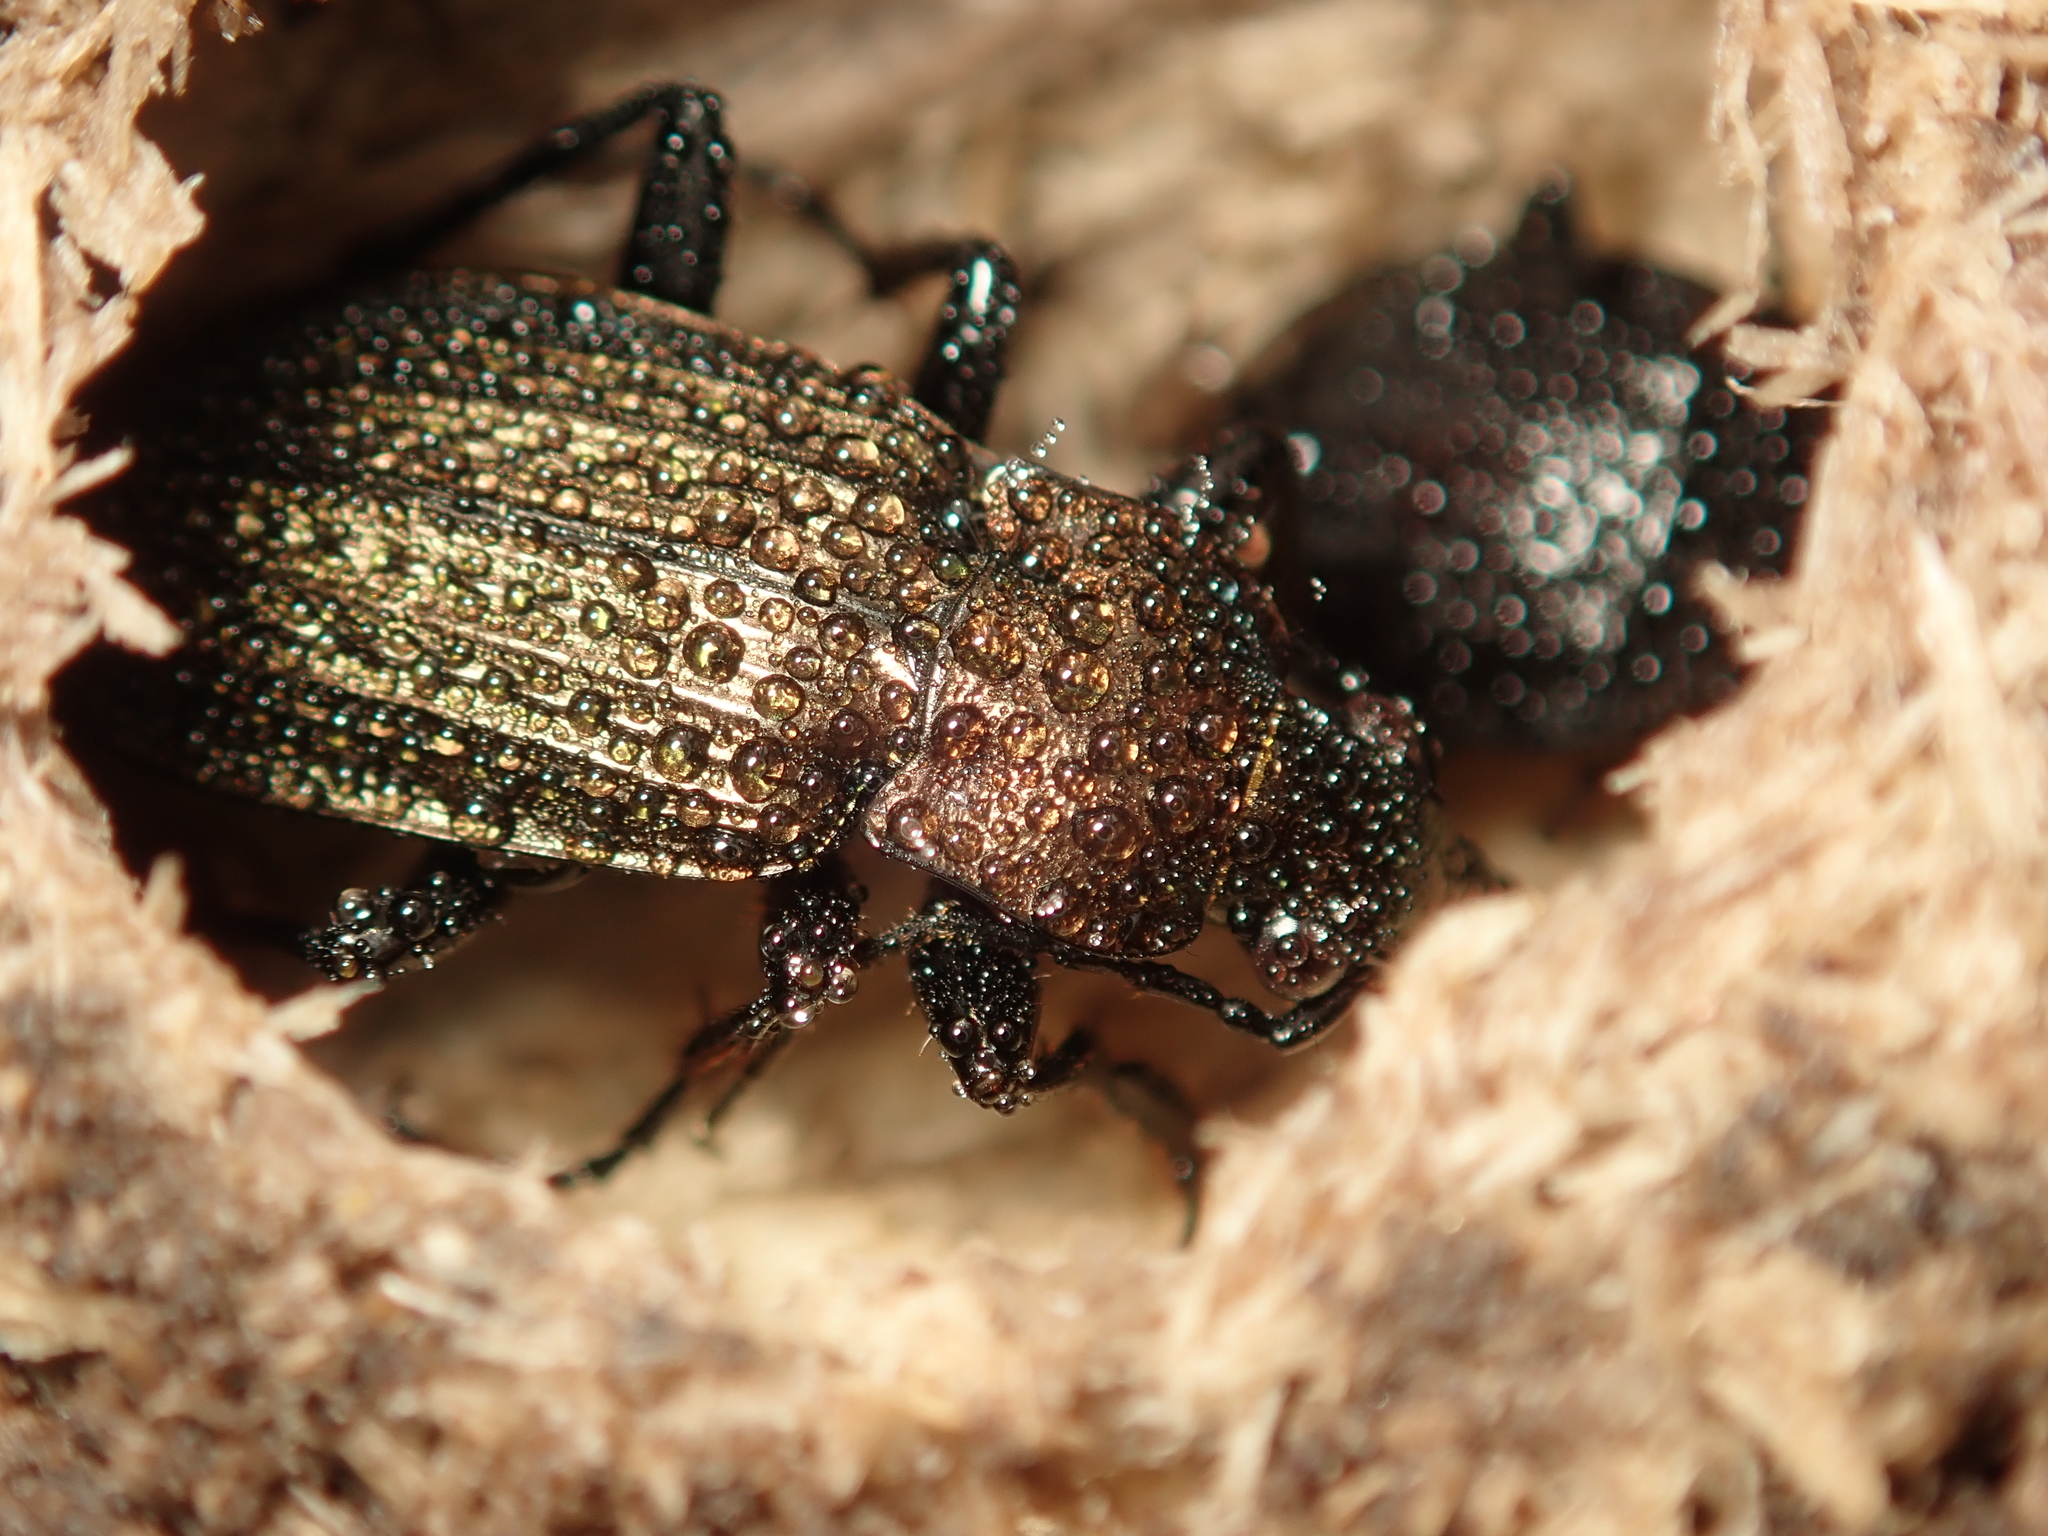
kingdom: Animalia
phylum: Arthropoda
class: Insecta
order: Coleoptera
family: Carabidae
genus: Carabus
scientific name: Carabus granulatus
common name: Granulate ground beetle
